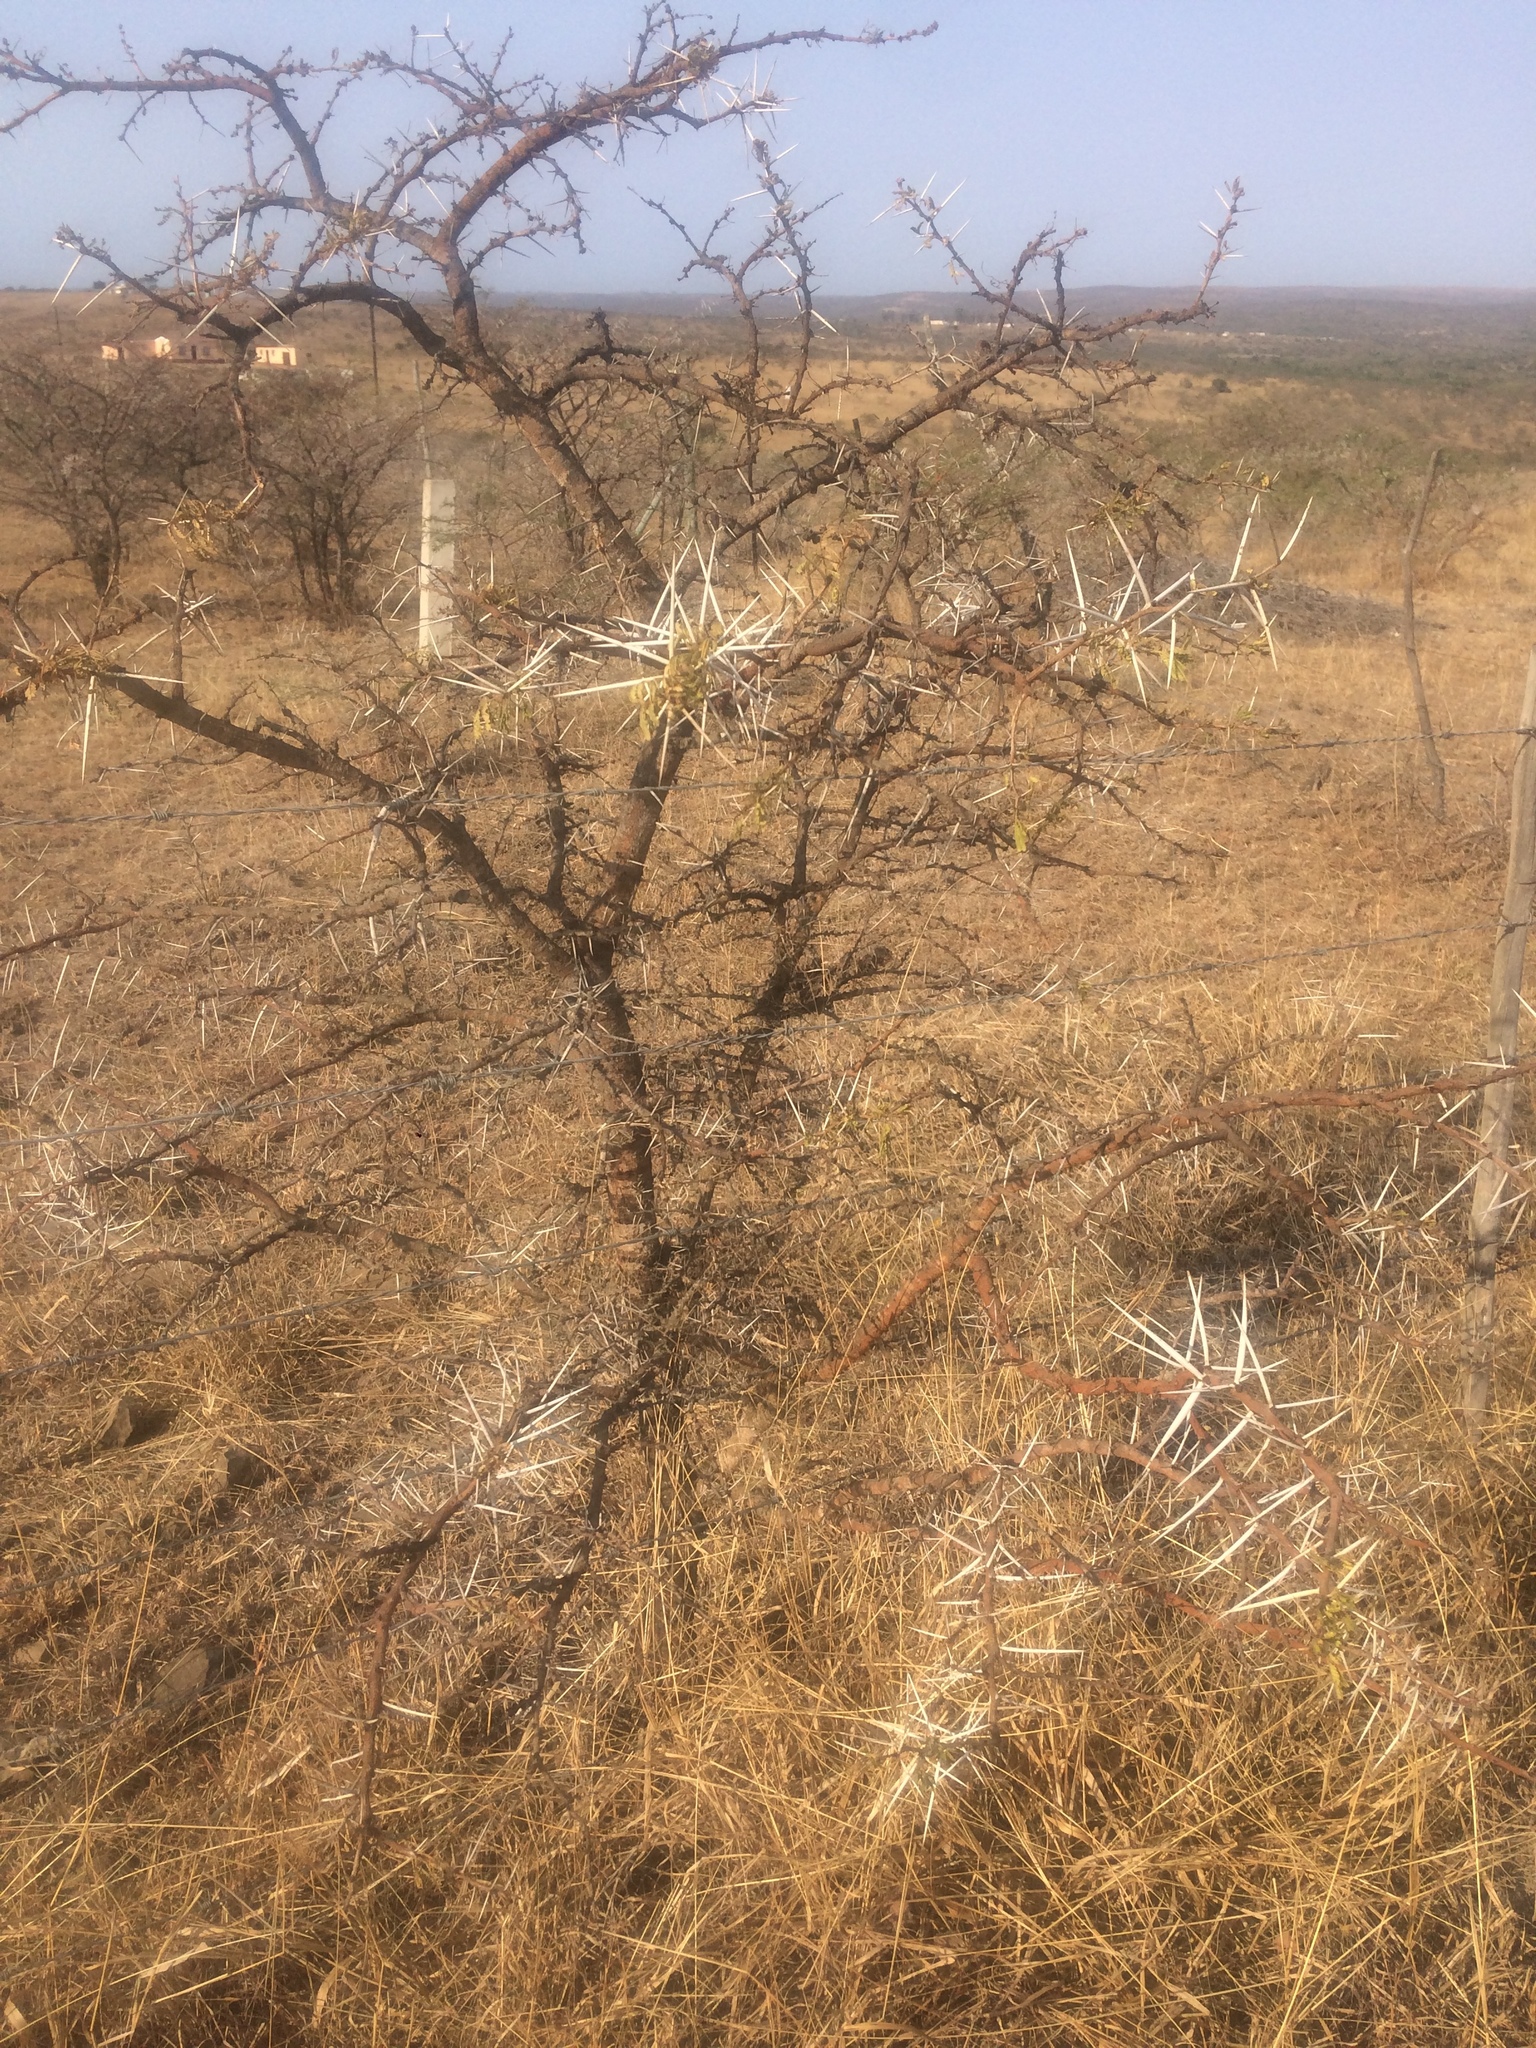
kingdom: Plantae
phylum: Tracheophyta
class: Magnoliopsida
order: Fabales
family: Fabaceae
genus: Vachellia
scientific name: Vachellia karroo
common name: Sweet thorn
